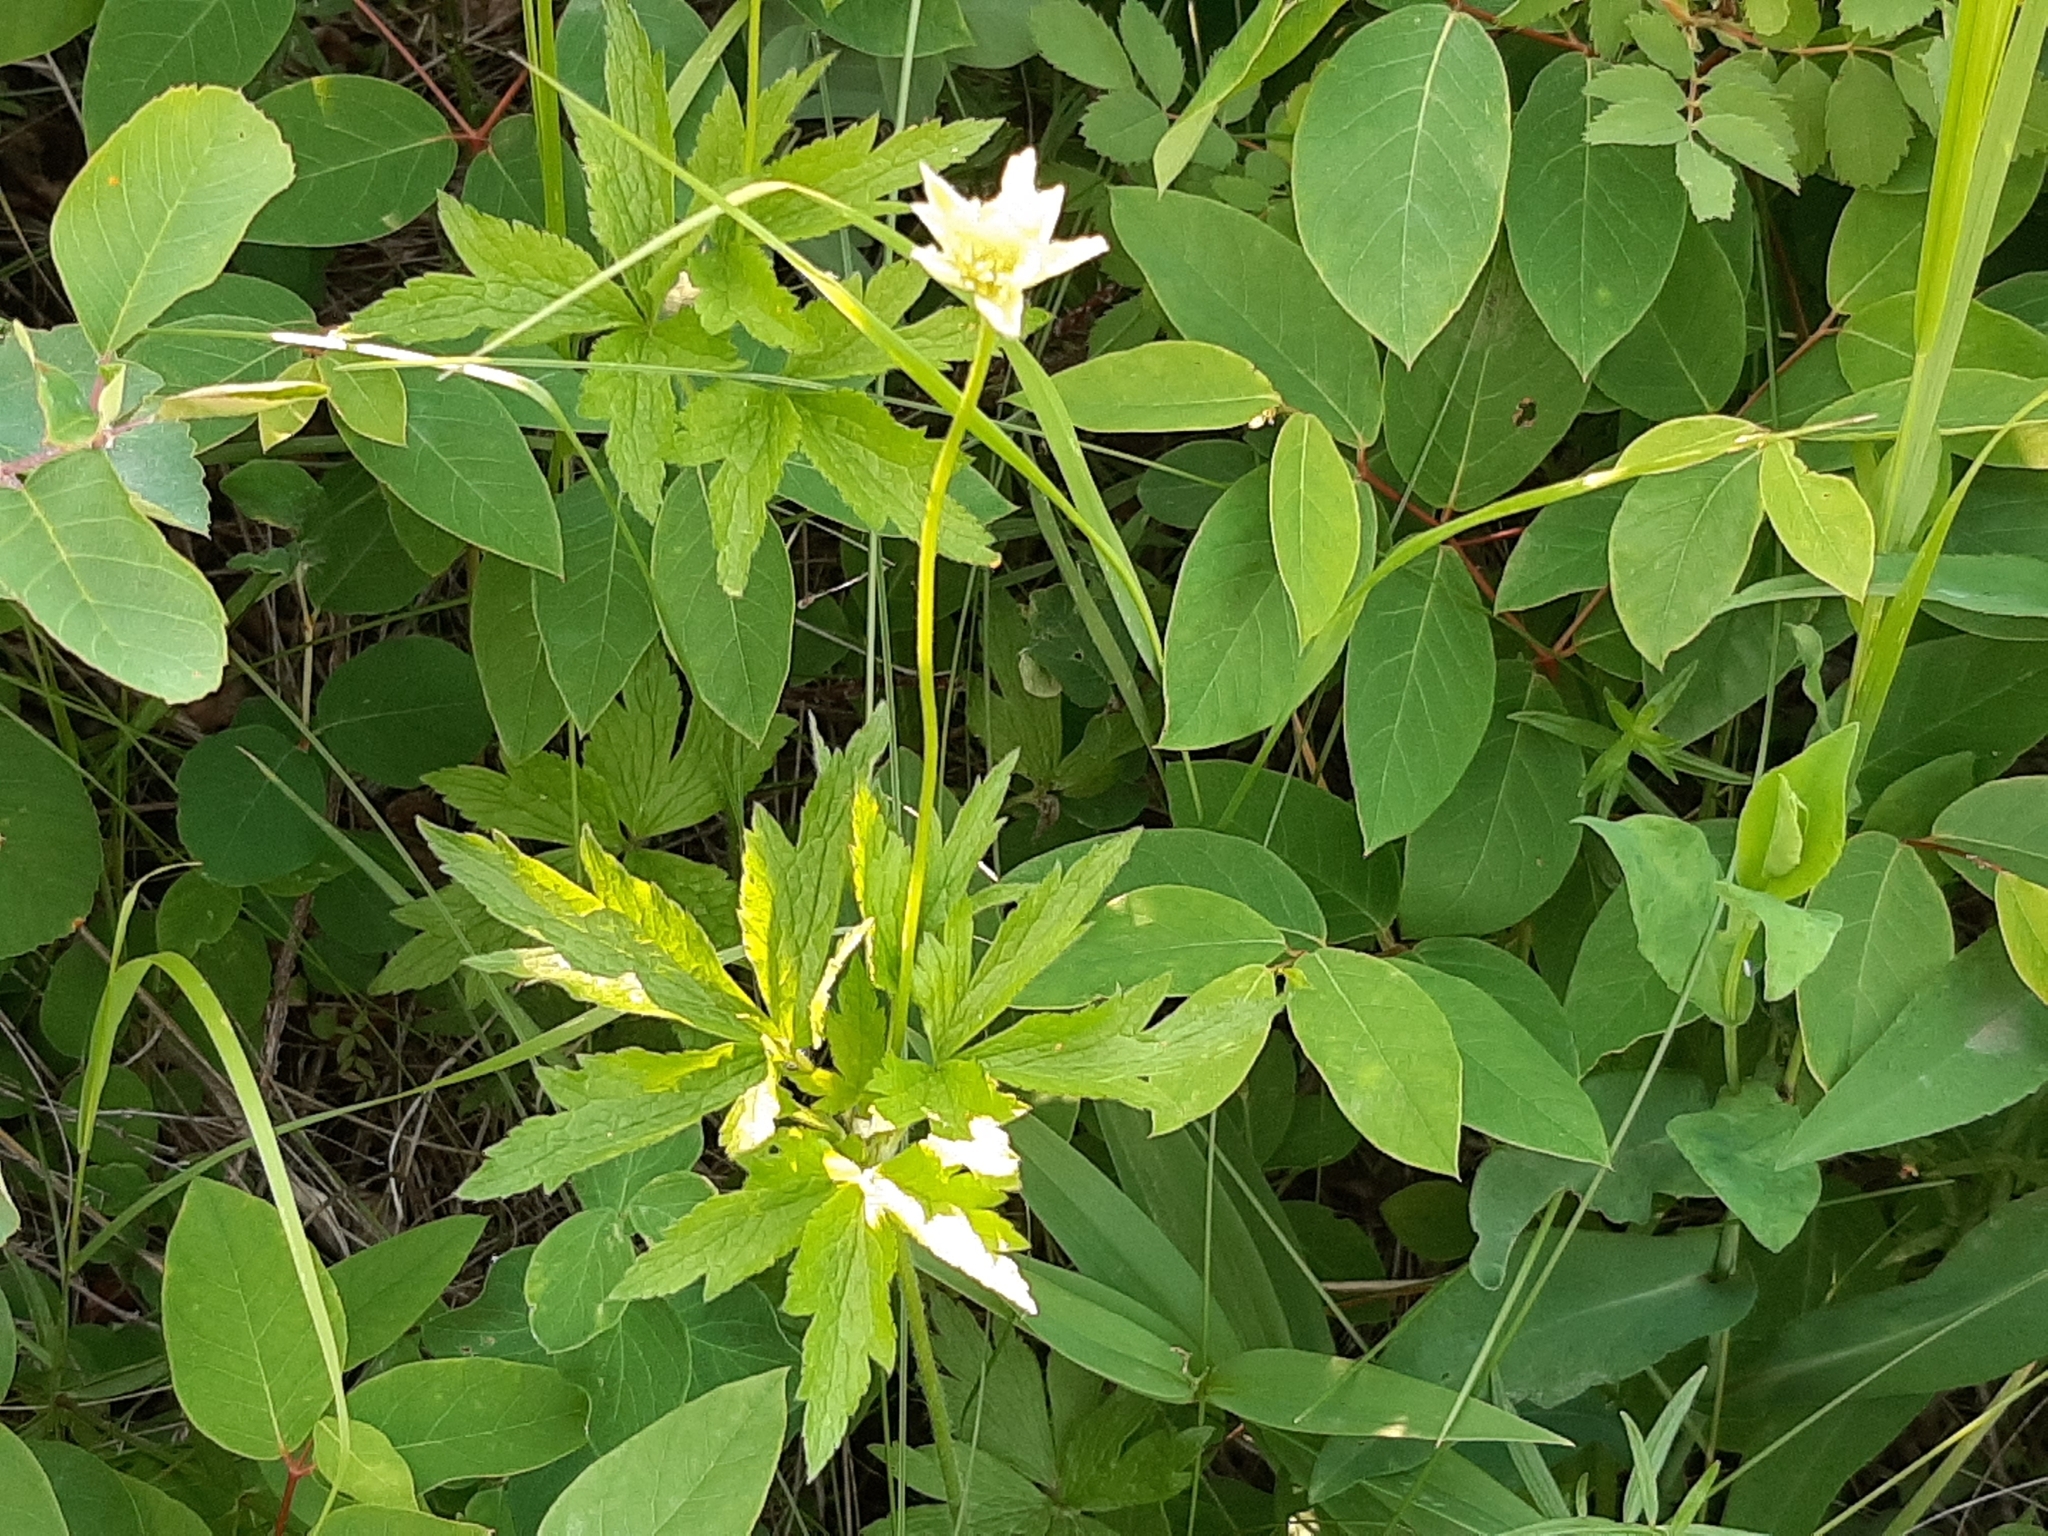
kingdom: Plantae
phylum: Tracheophyta
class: Magnoliopsida
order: Ranunculales
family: Ranunculaceae
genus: Anemone
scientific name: Anemone virginiana
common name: Tall anemone
